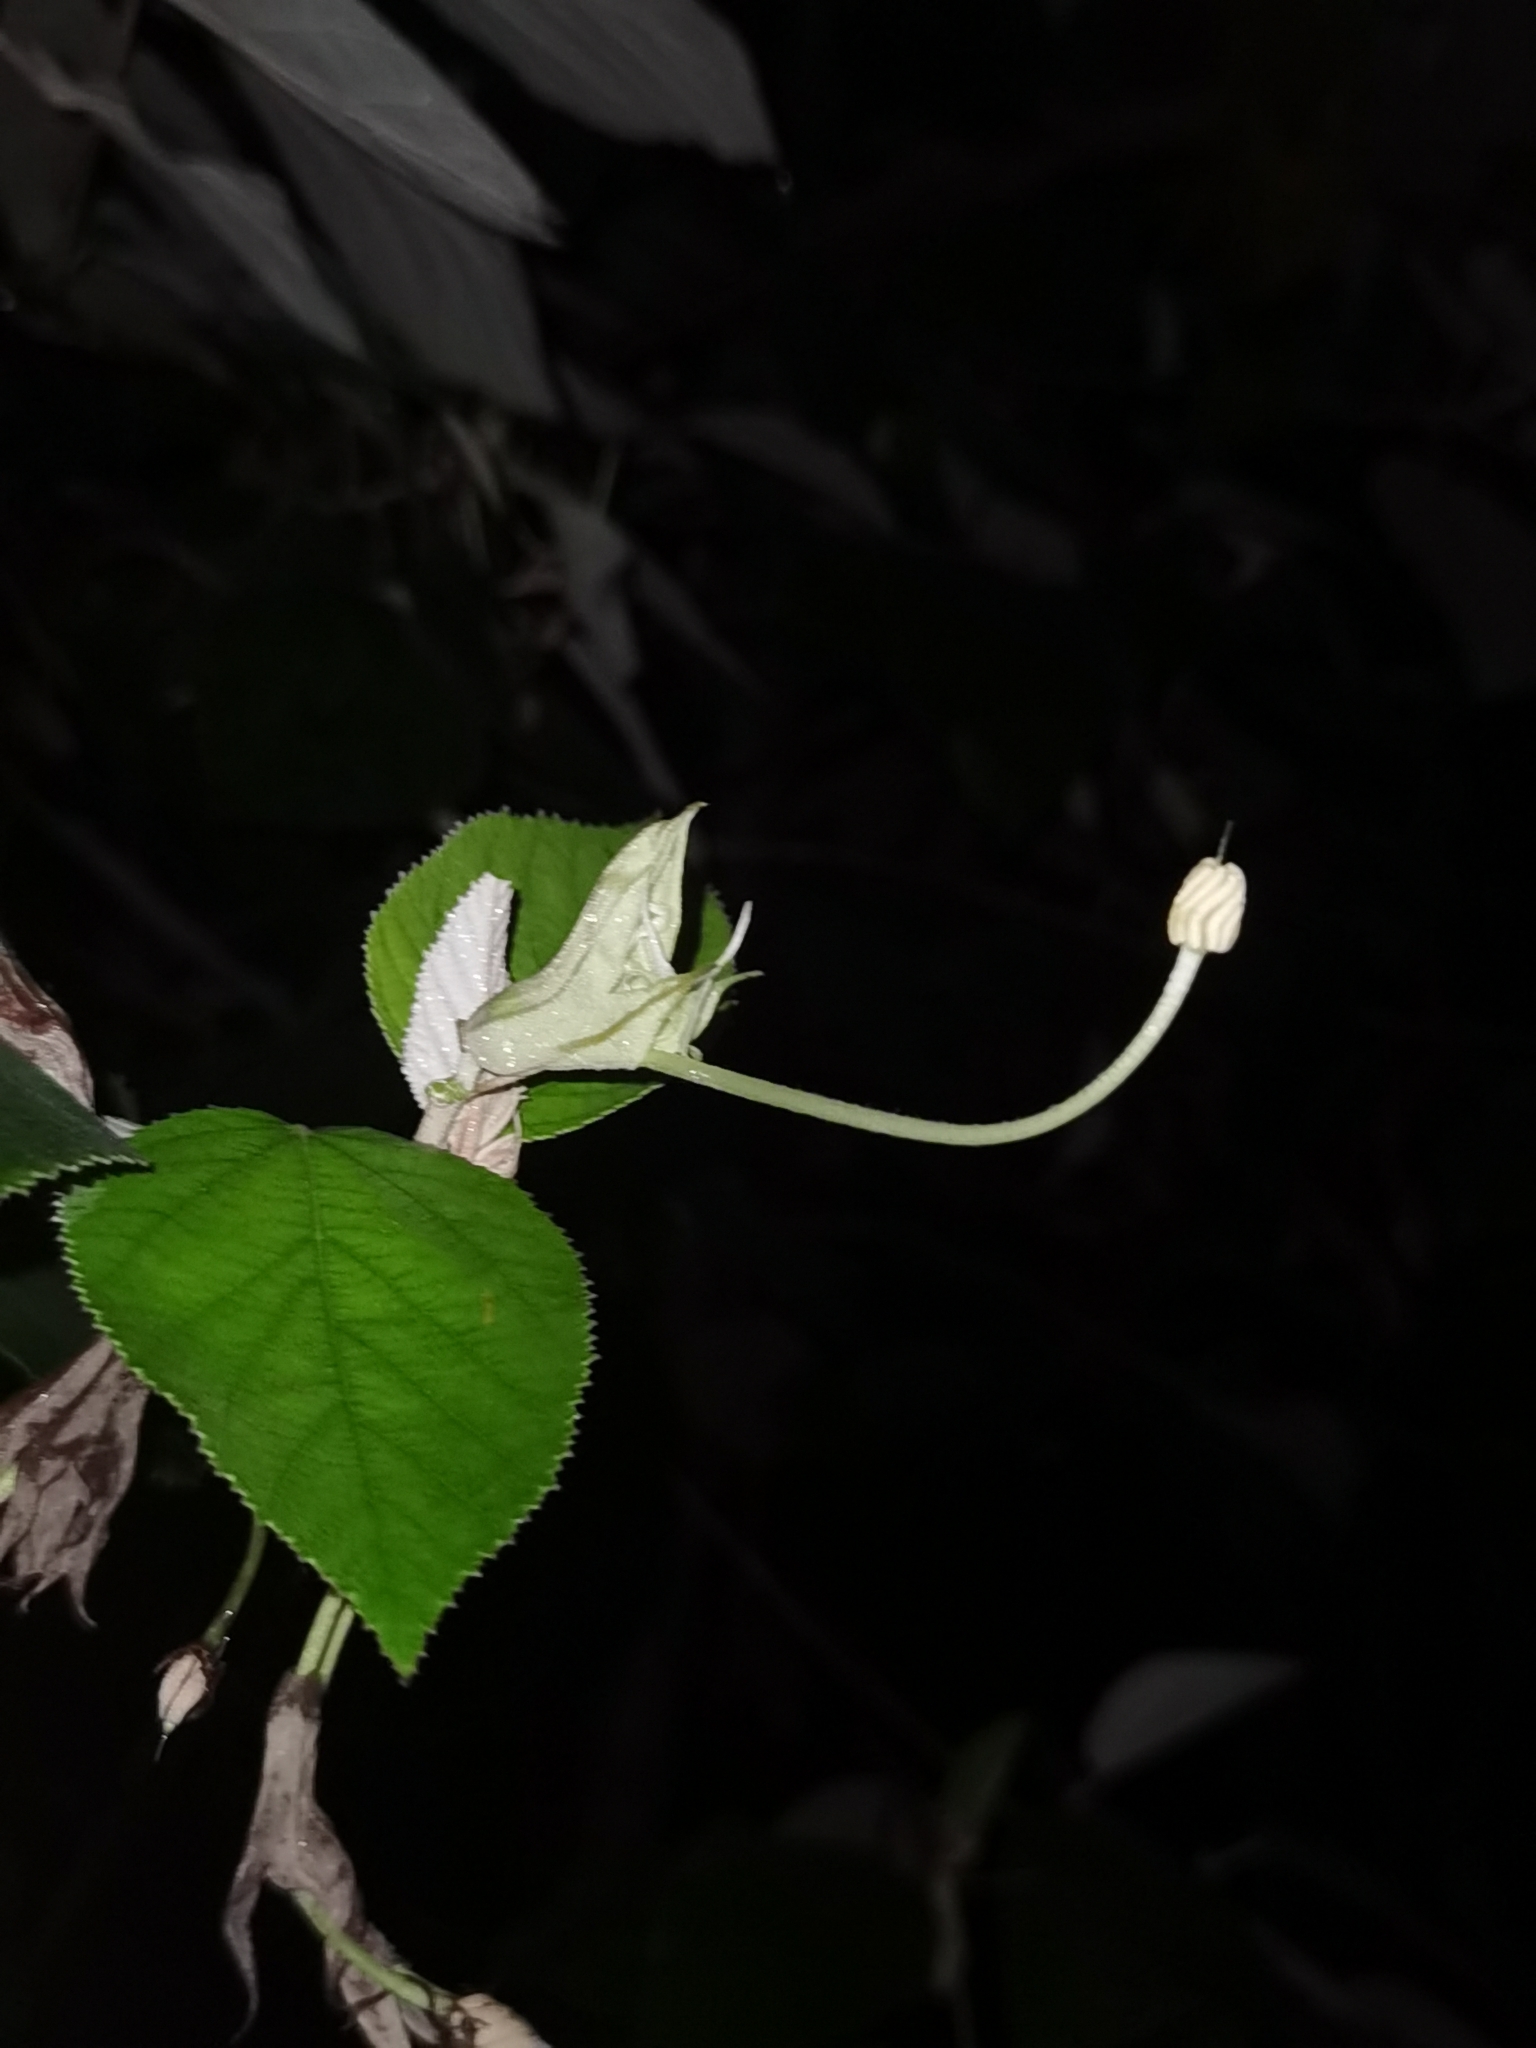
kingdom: Plantae
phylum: Tracheophyta
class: Magnoliopsida
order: Malvales
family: Malvaceae
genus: Helicteres
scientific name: Helicteres baruensis
